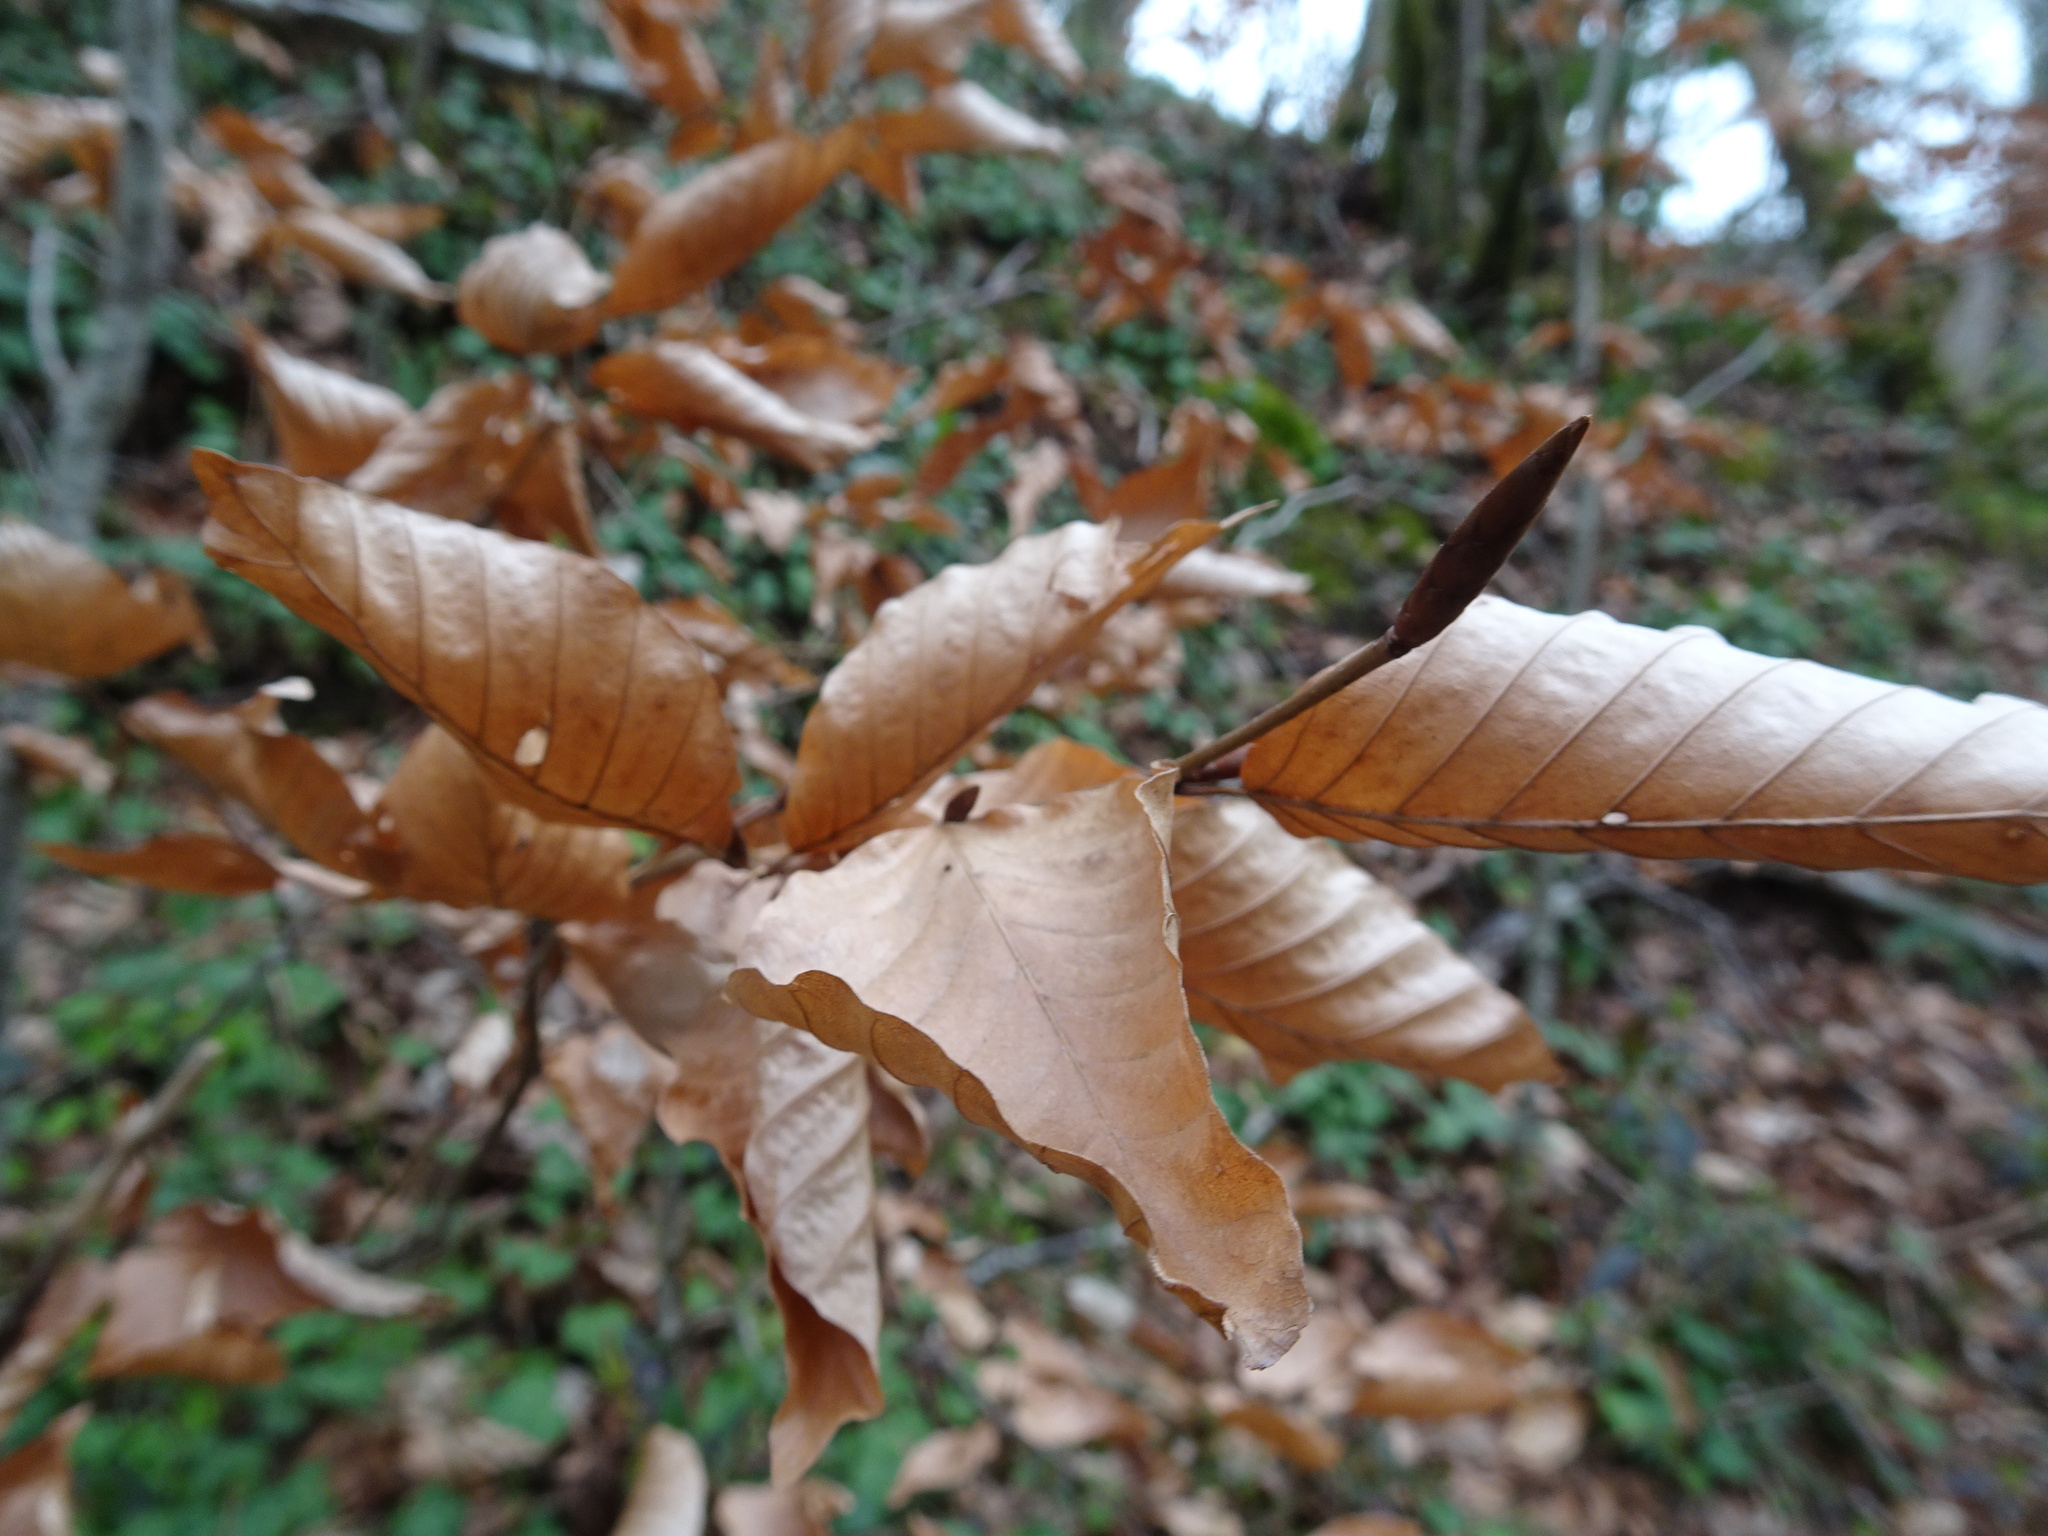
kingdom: Plantae
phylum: Tracheophyta
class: Magnoliopsida
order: Fagales
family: Fagaceae
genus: Fagus
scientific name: Fagus sylvatica
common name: Beech
